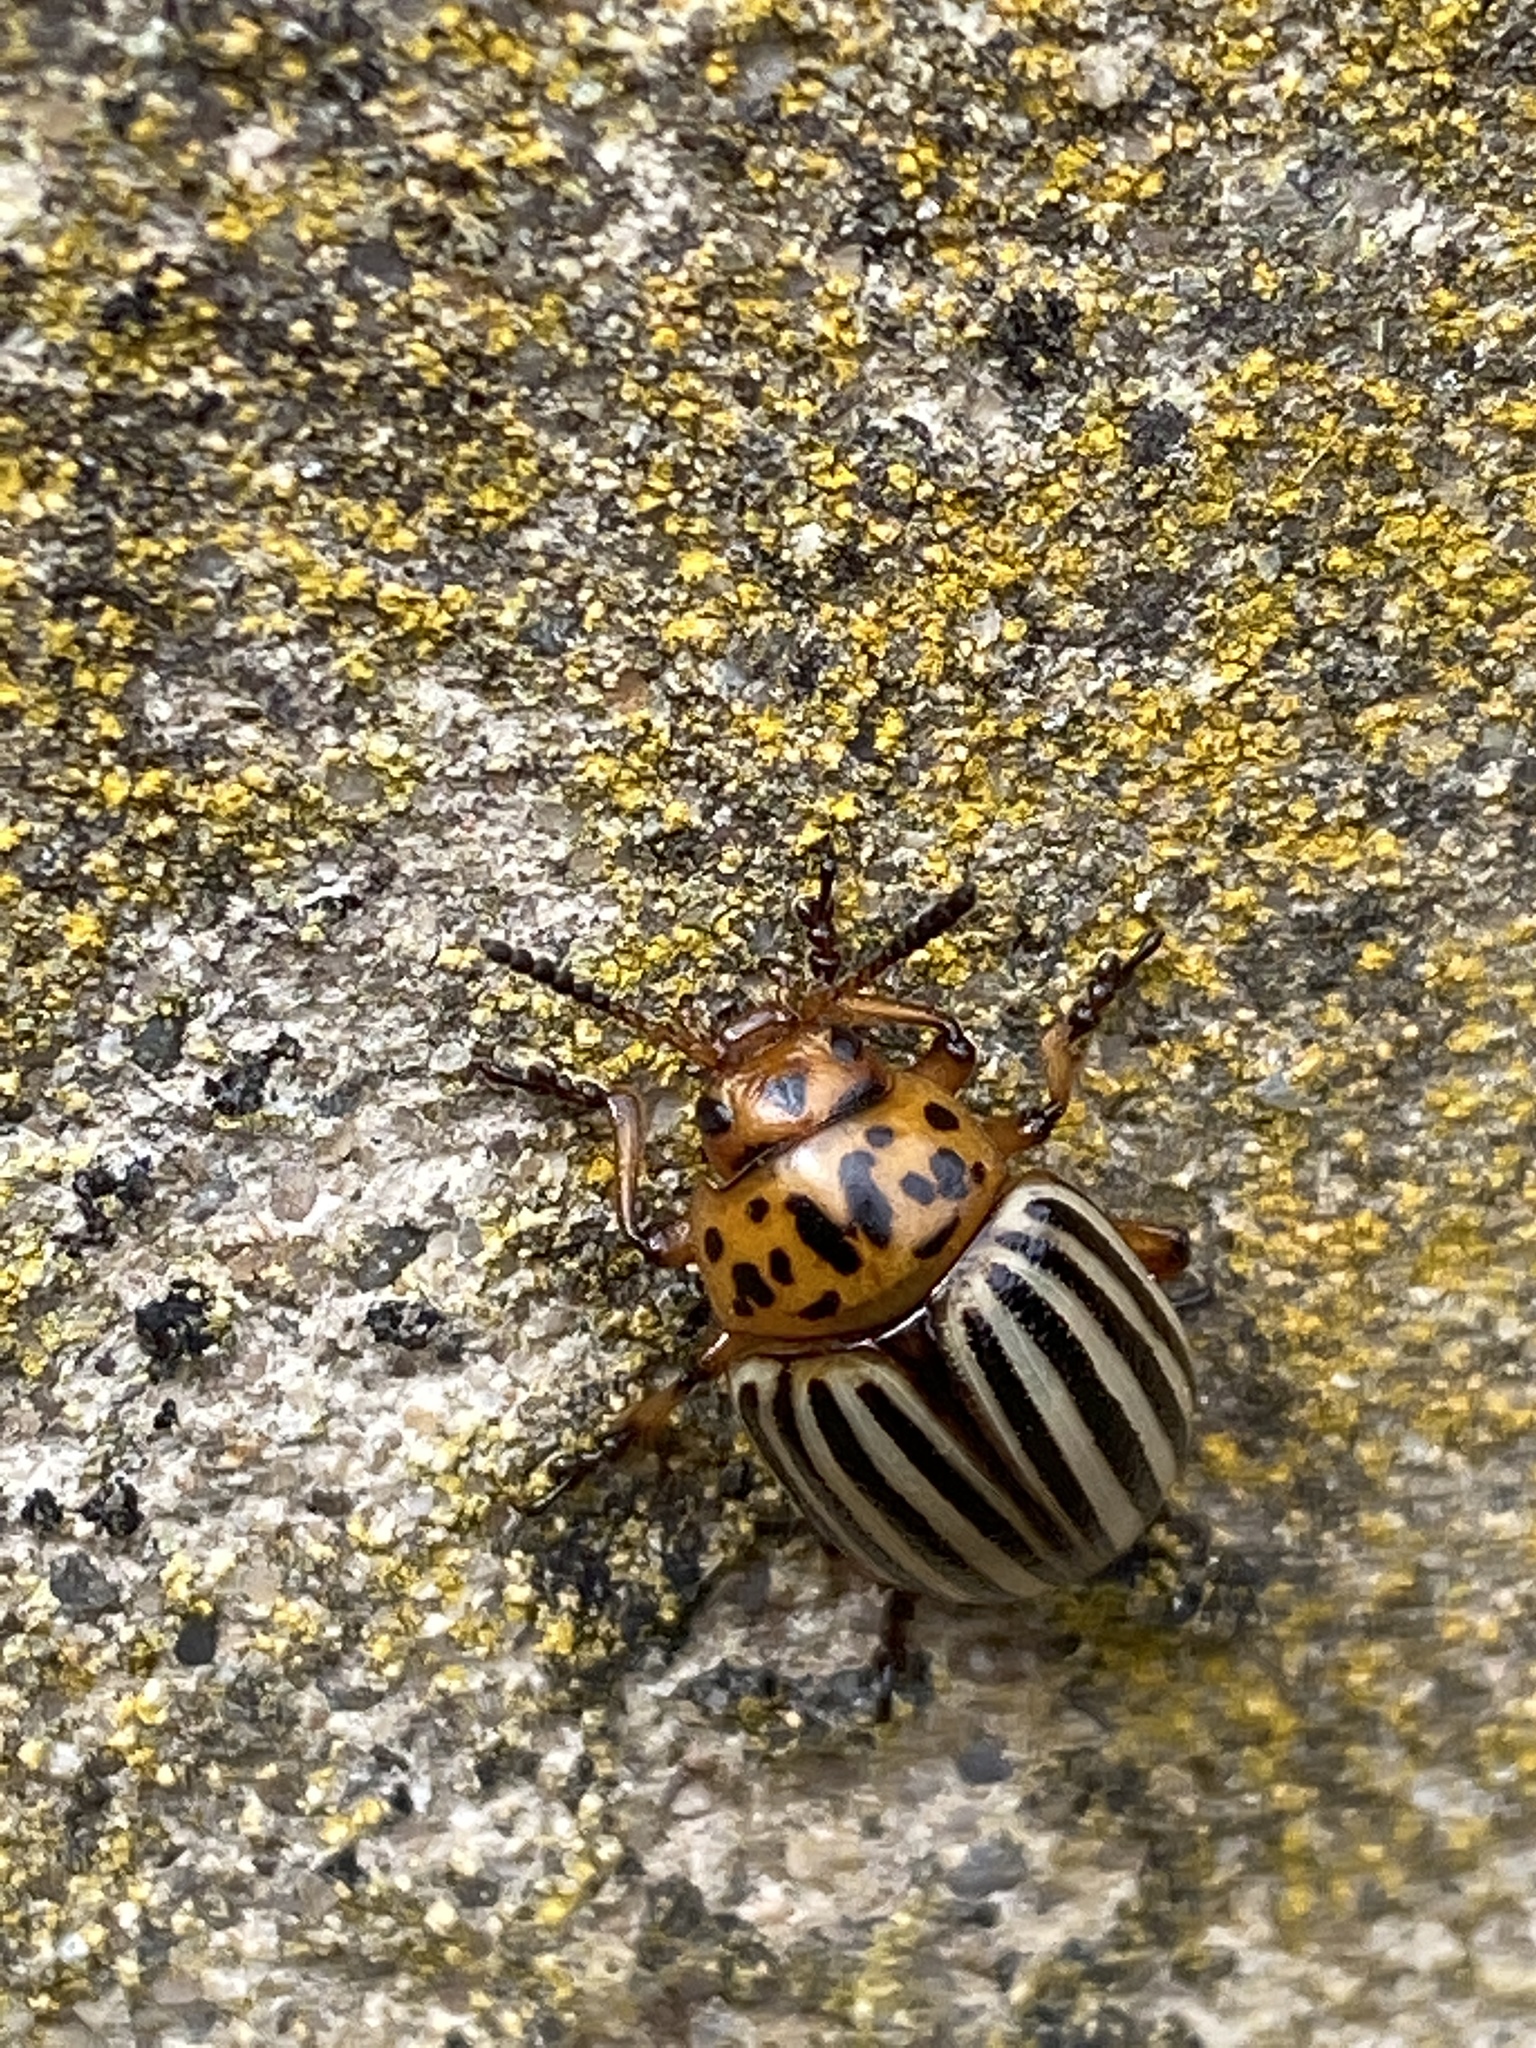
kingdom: Animalia
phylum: Arthropoda
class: Insecta
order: Coleoptera
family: Chrysomelidae
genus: Leptinotarsa
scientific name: Leptinotarsa decemlineata
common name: Colorado potato beetle
